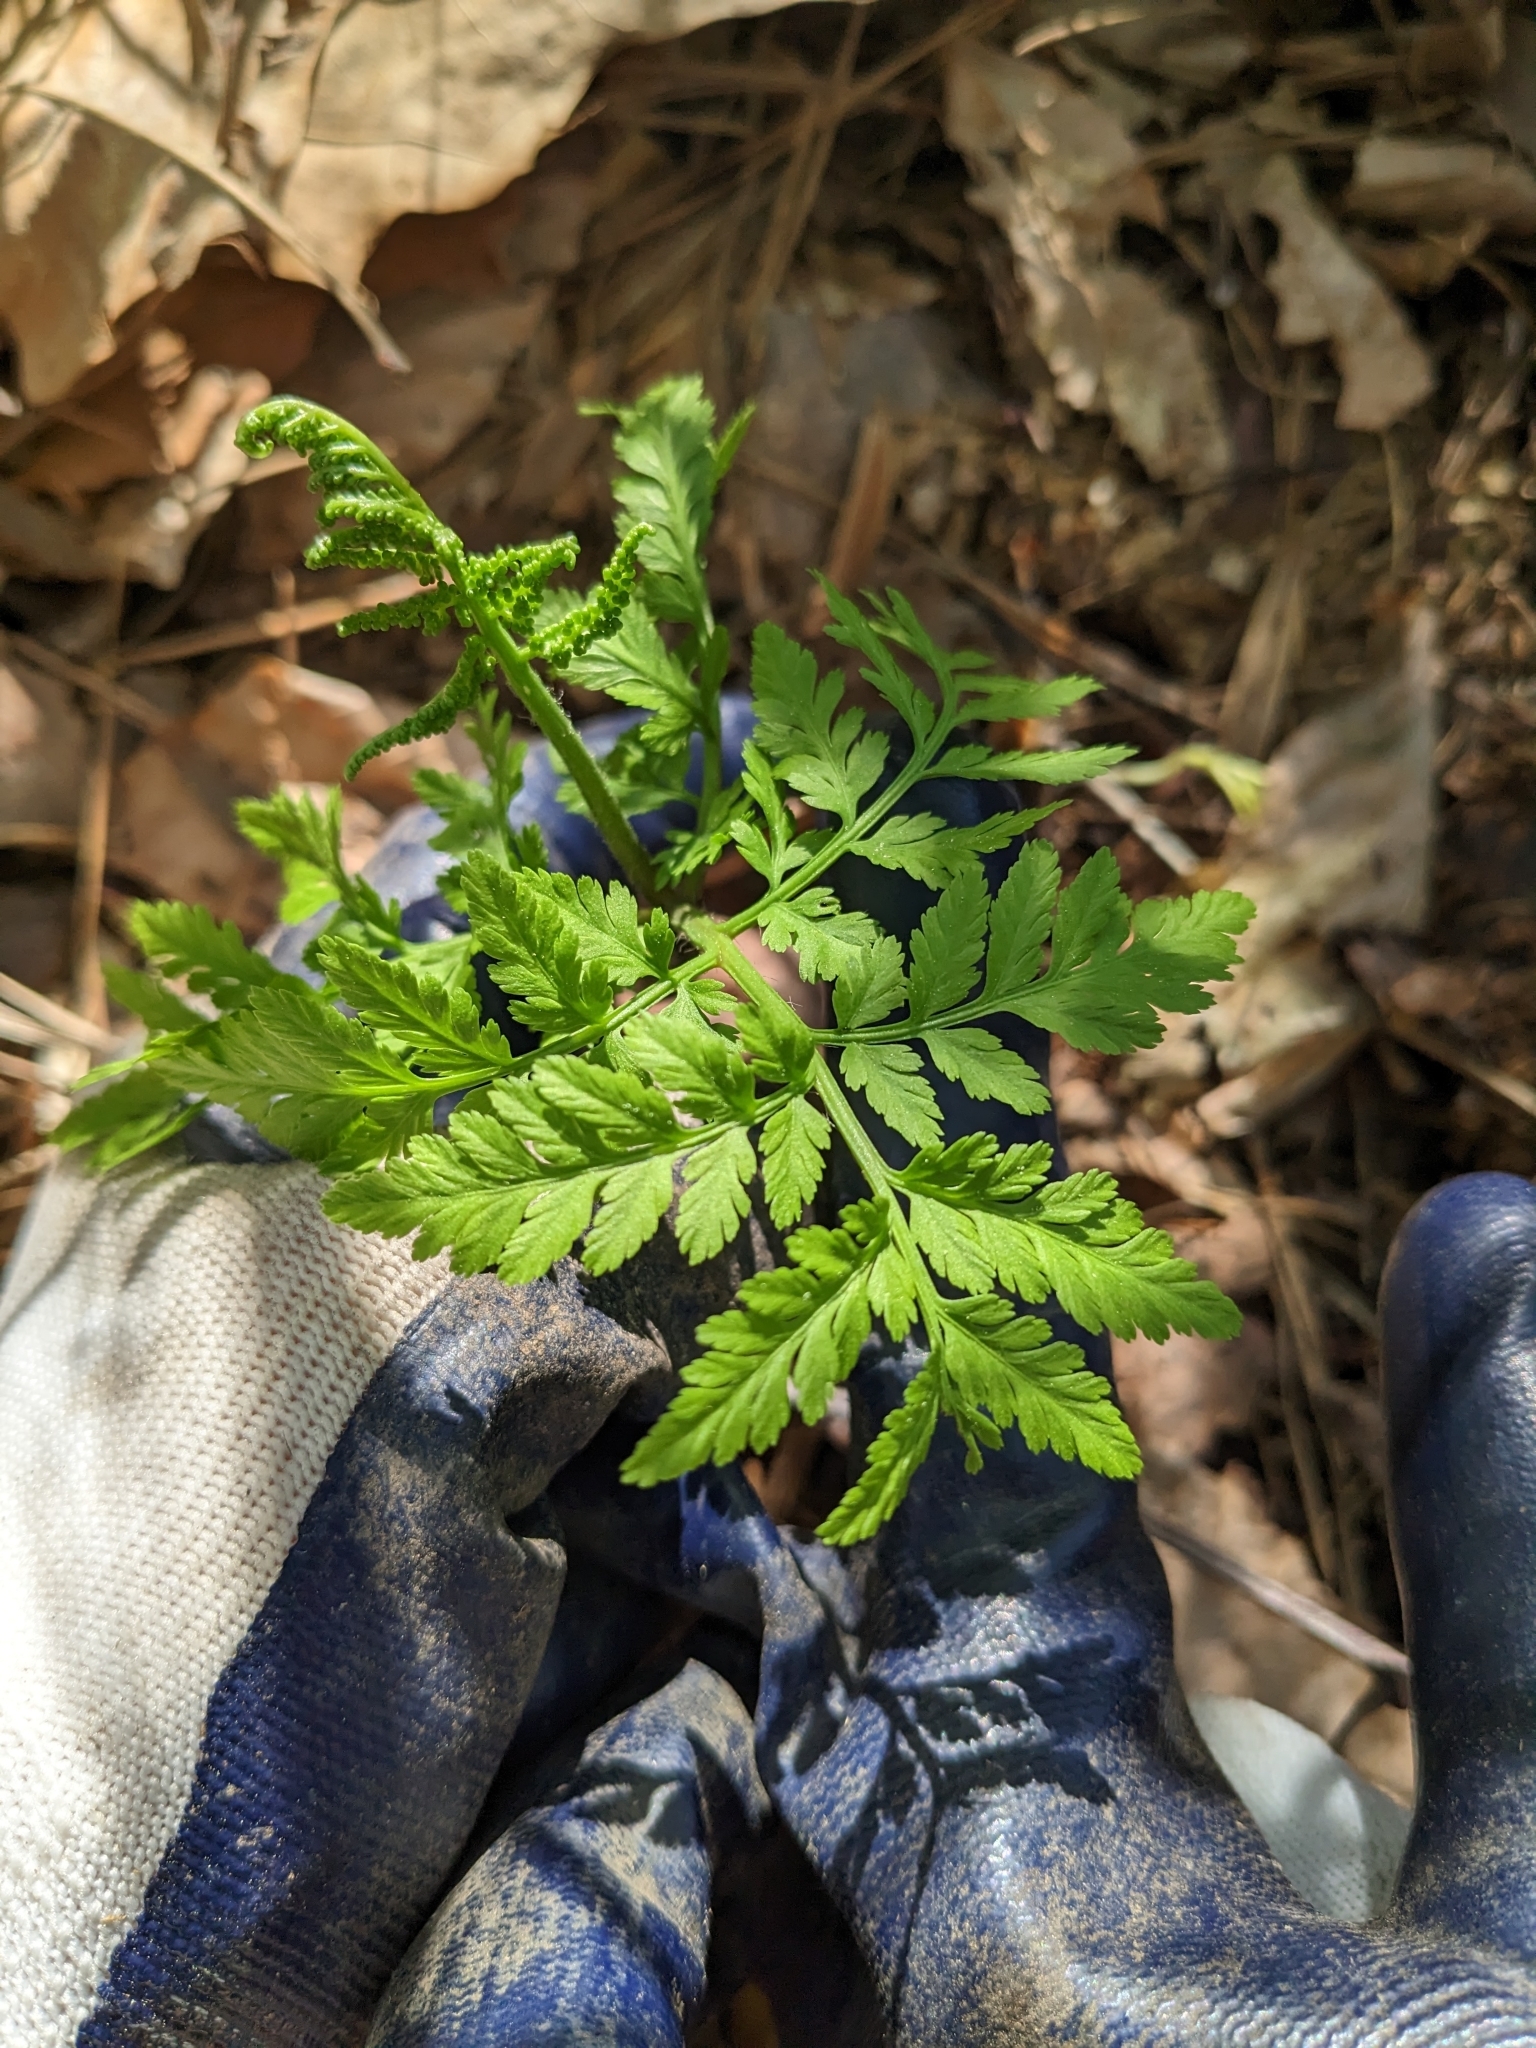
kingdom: Plantae
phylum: Tracheophyta
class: Polypodiopsida
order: Ophioglossales
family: Ophioglossaceae
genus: Botrypus
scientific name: Botrypus virginianus
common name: Common grapefern
